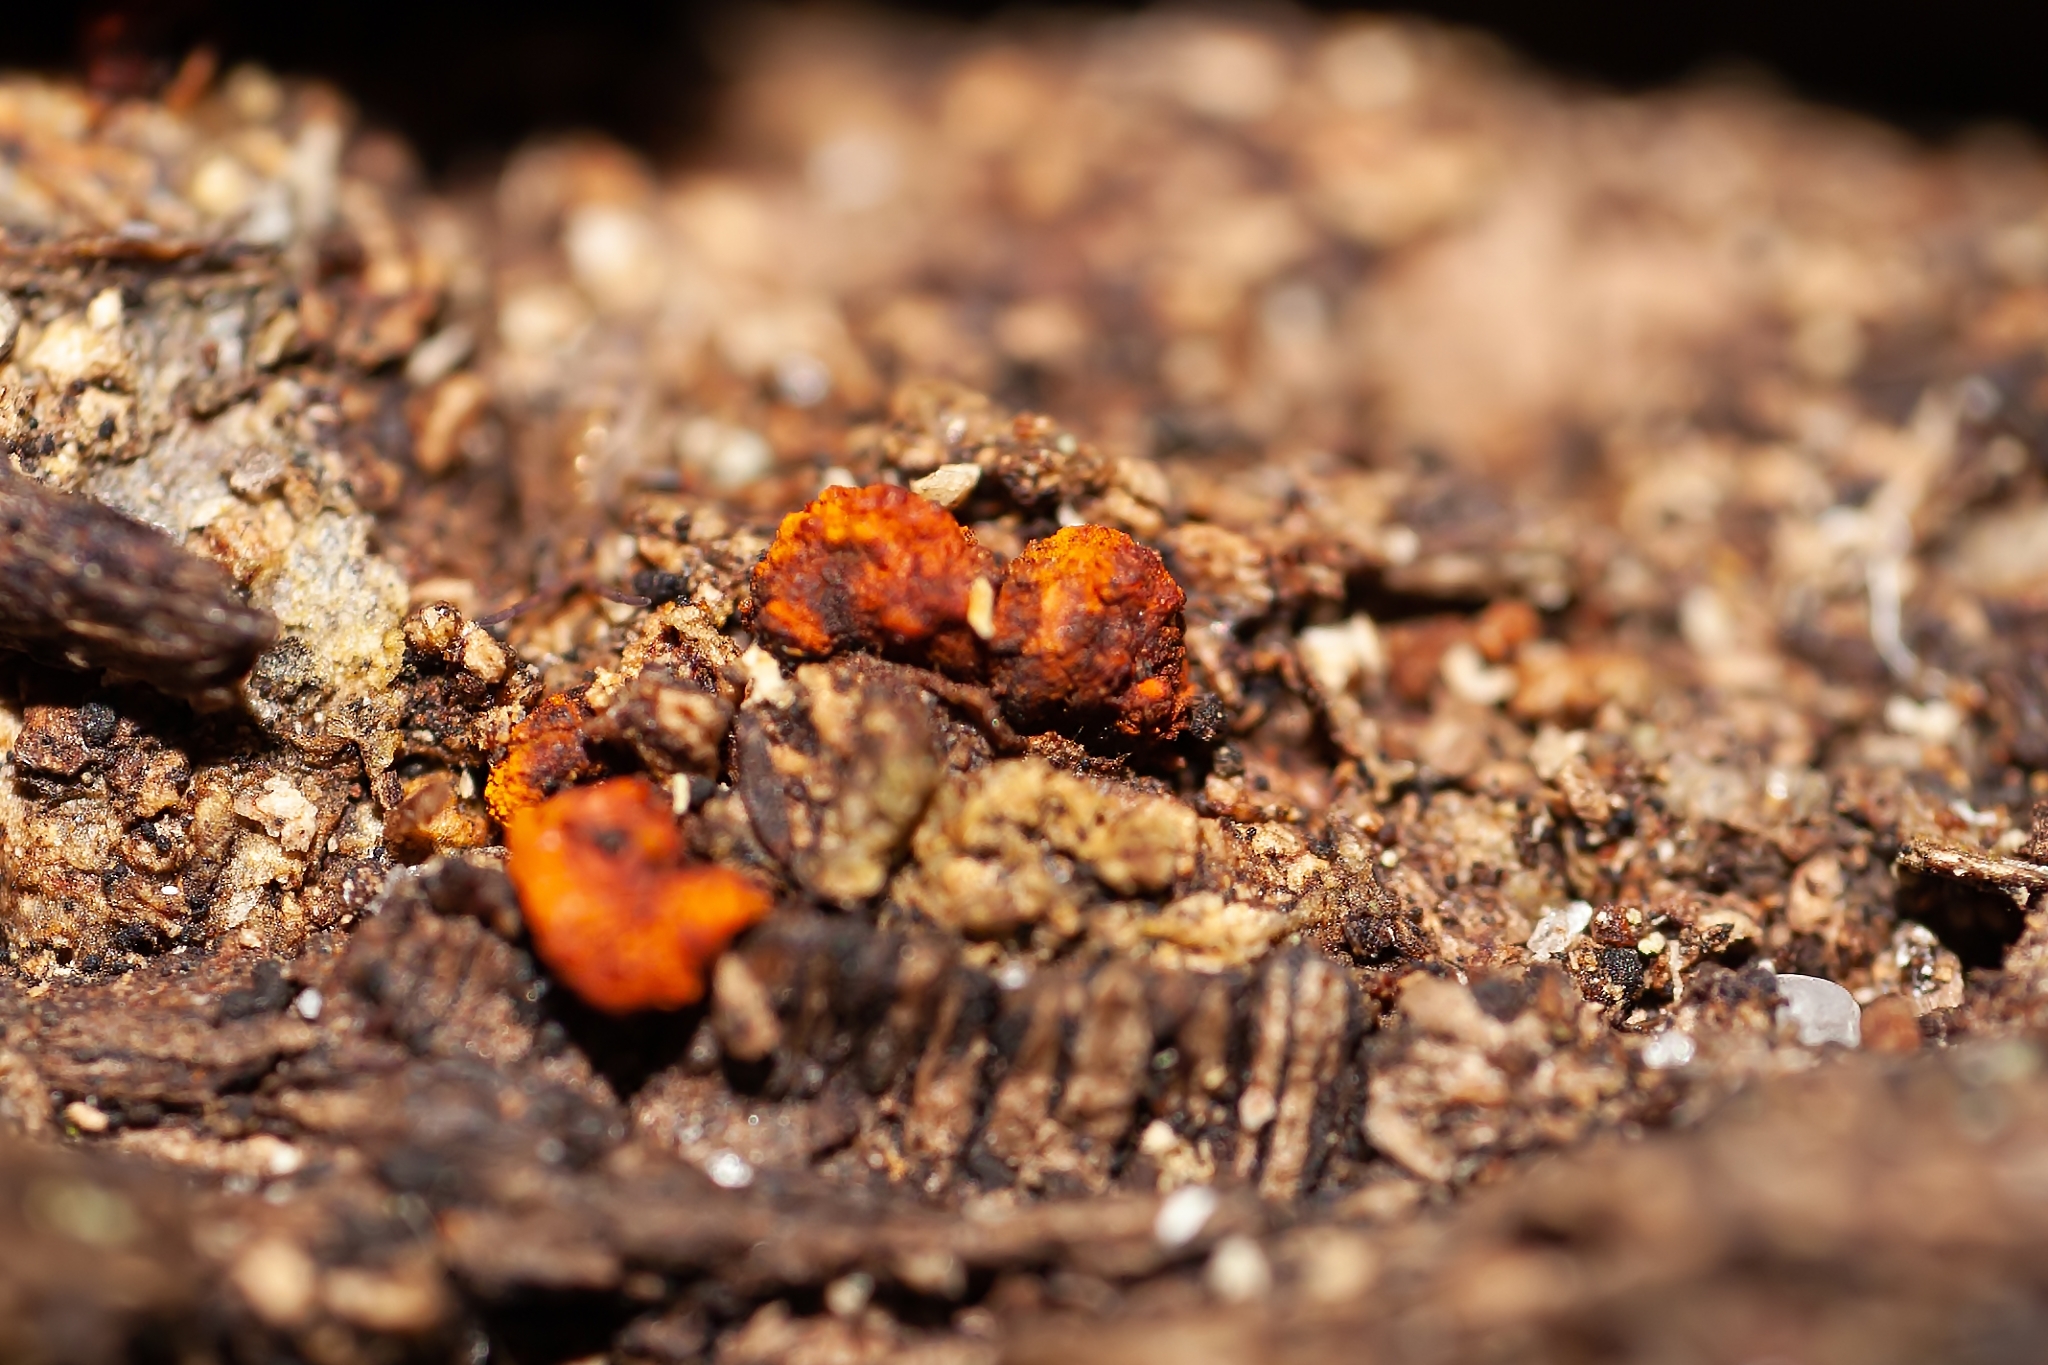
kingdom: Fungi
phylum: Ascomycota
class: Sordariomycetes
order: Diaporthales
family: Cryphonectriaceae
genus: Amphilogia
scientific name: Amphilogia gyrosa
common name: Orange hobnail canker
